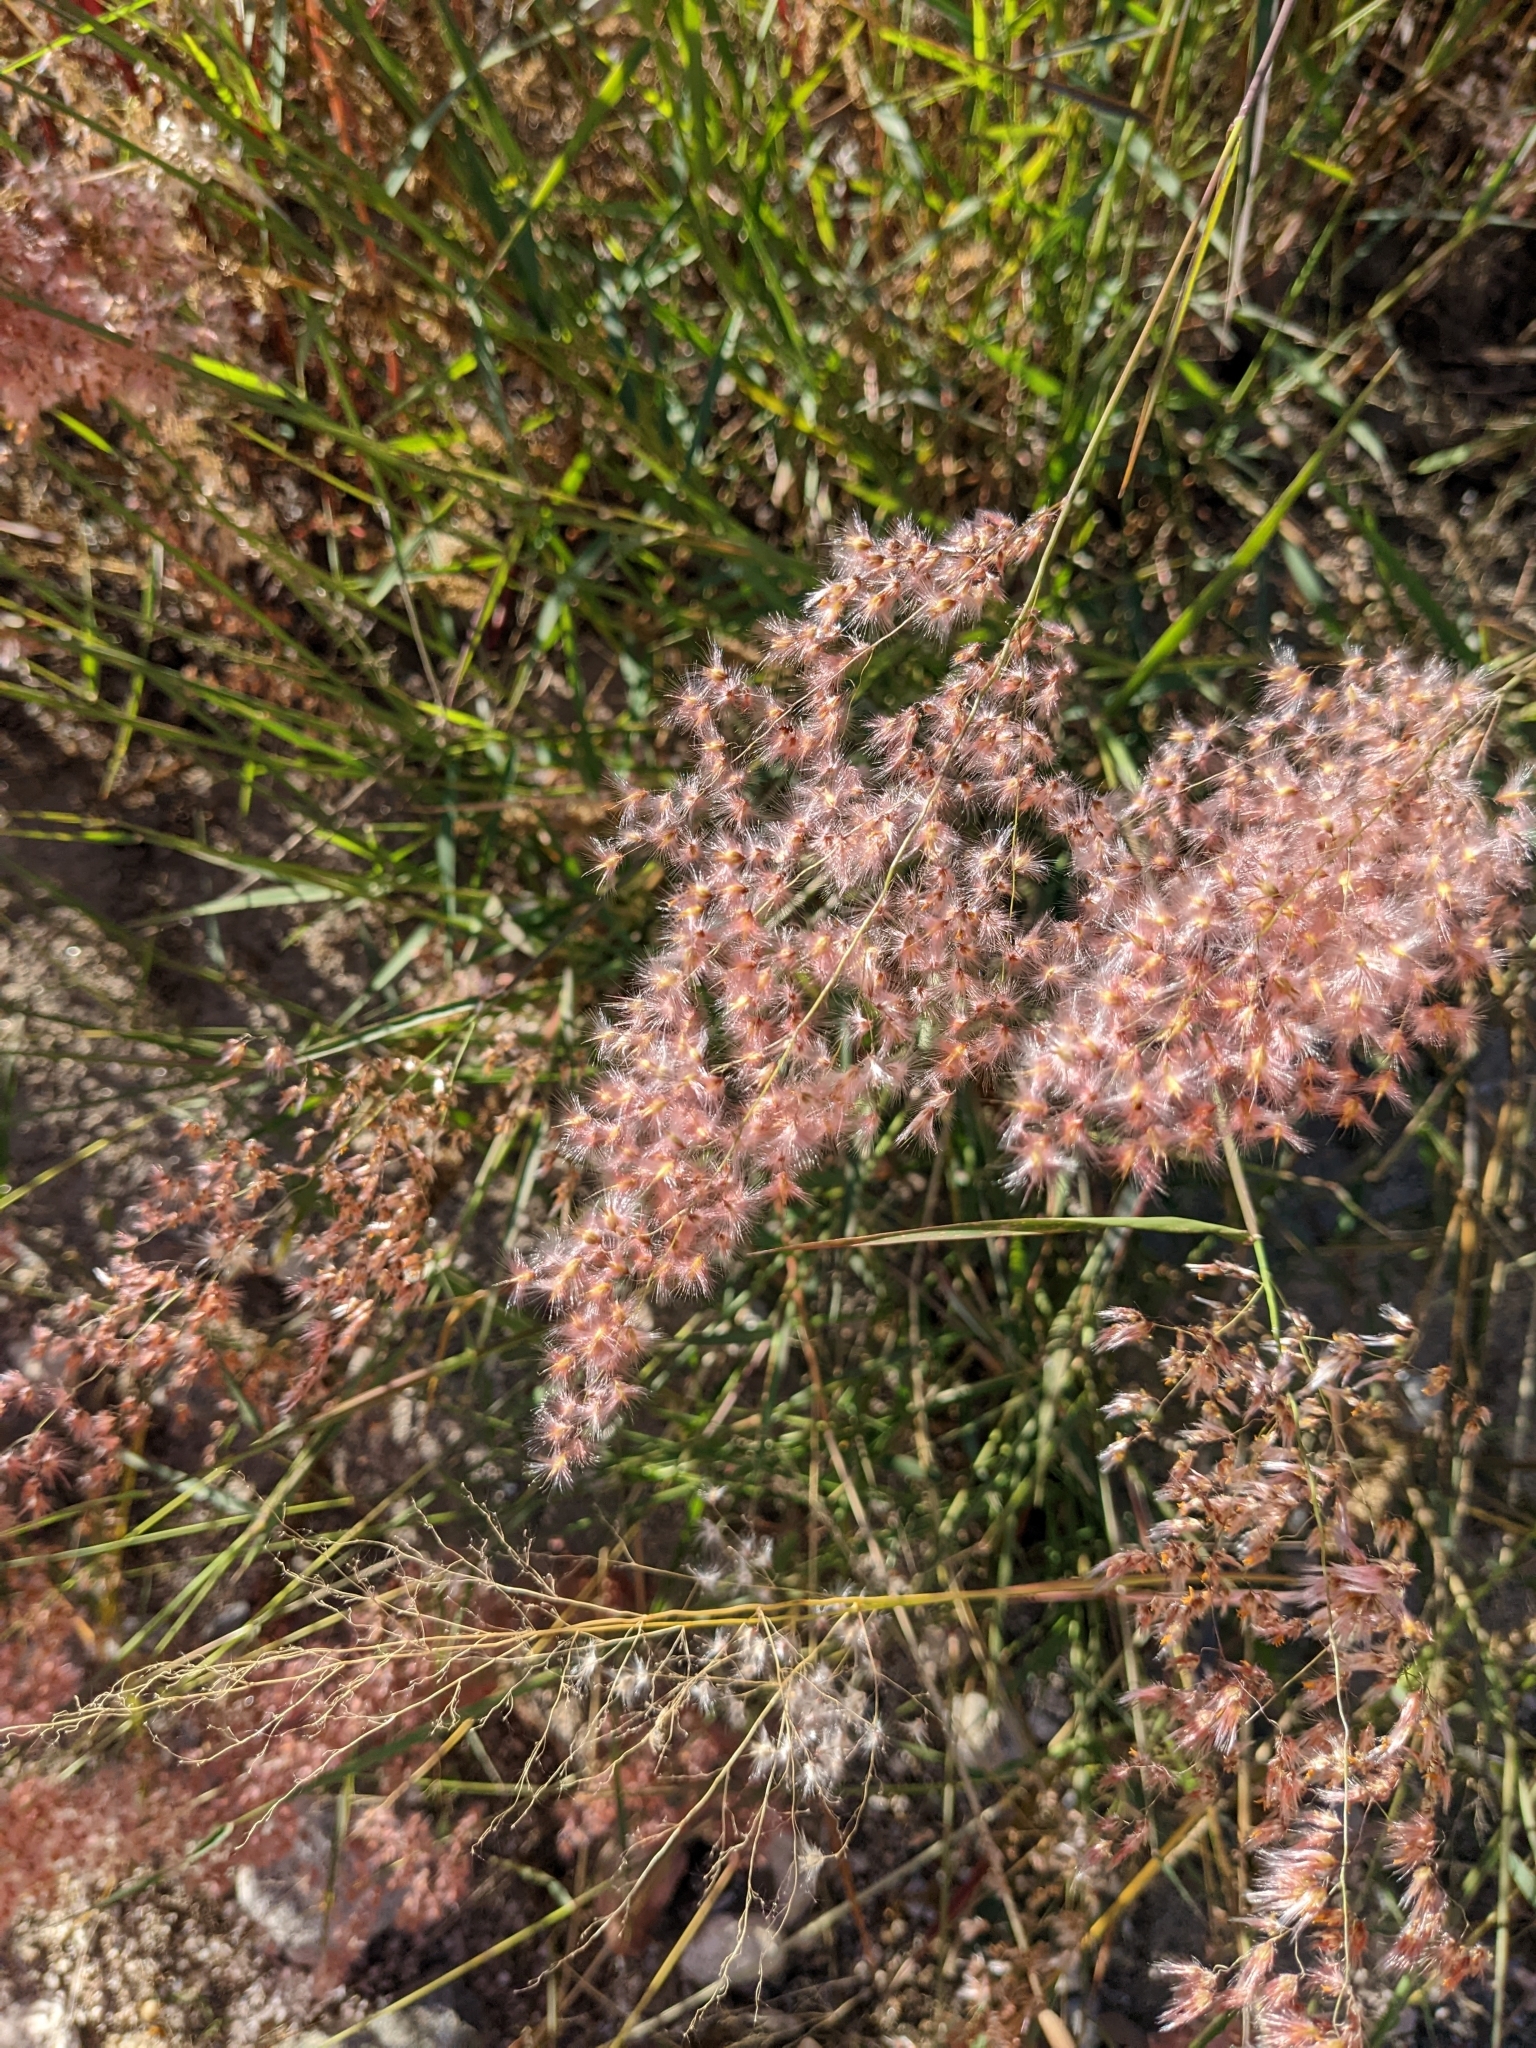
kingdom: Plantae
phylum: Tracheophyta
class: Liliopsida
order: Poales
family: Poaceae
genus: Melinis
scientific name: Melinis repens
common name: Rose natal grass
